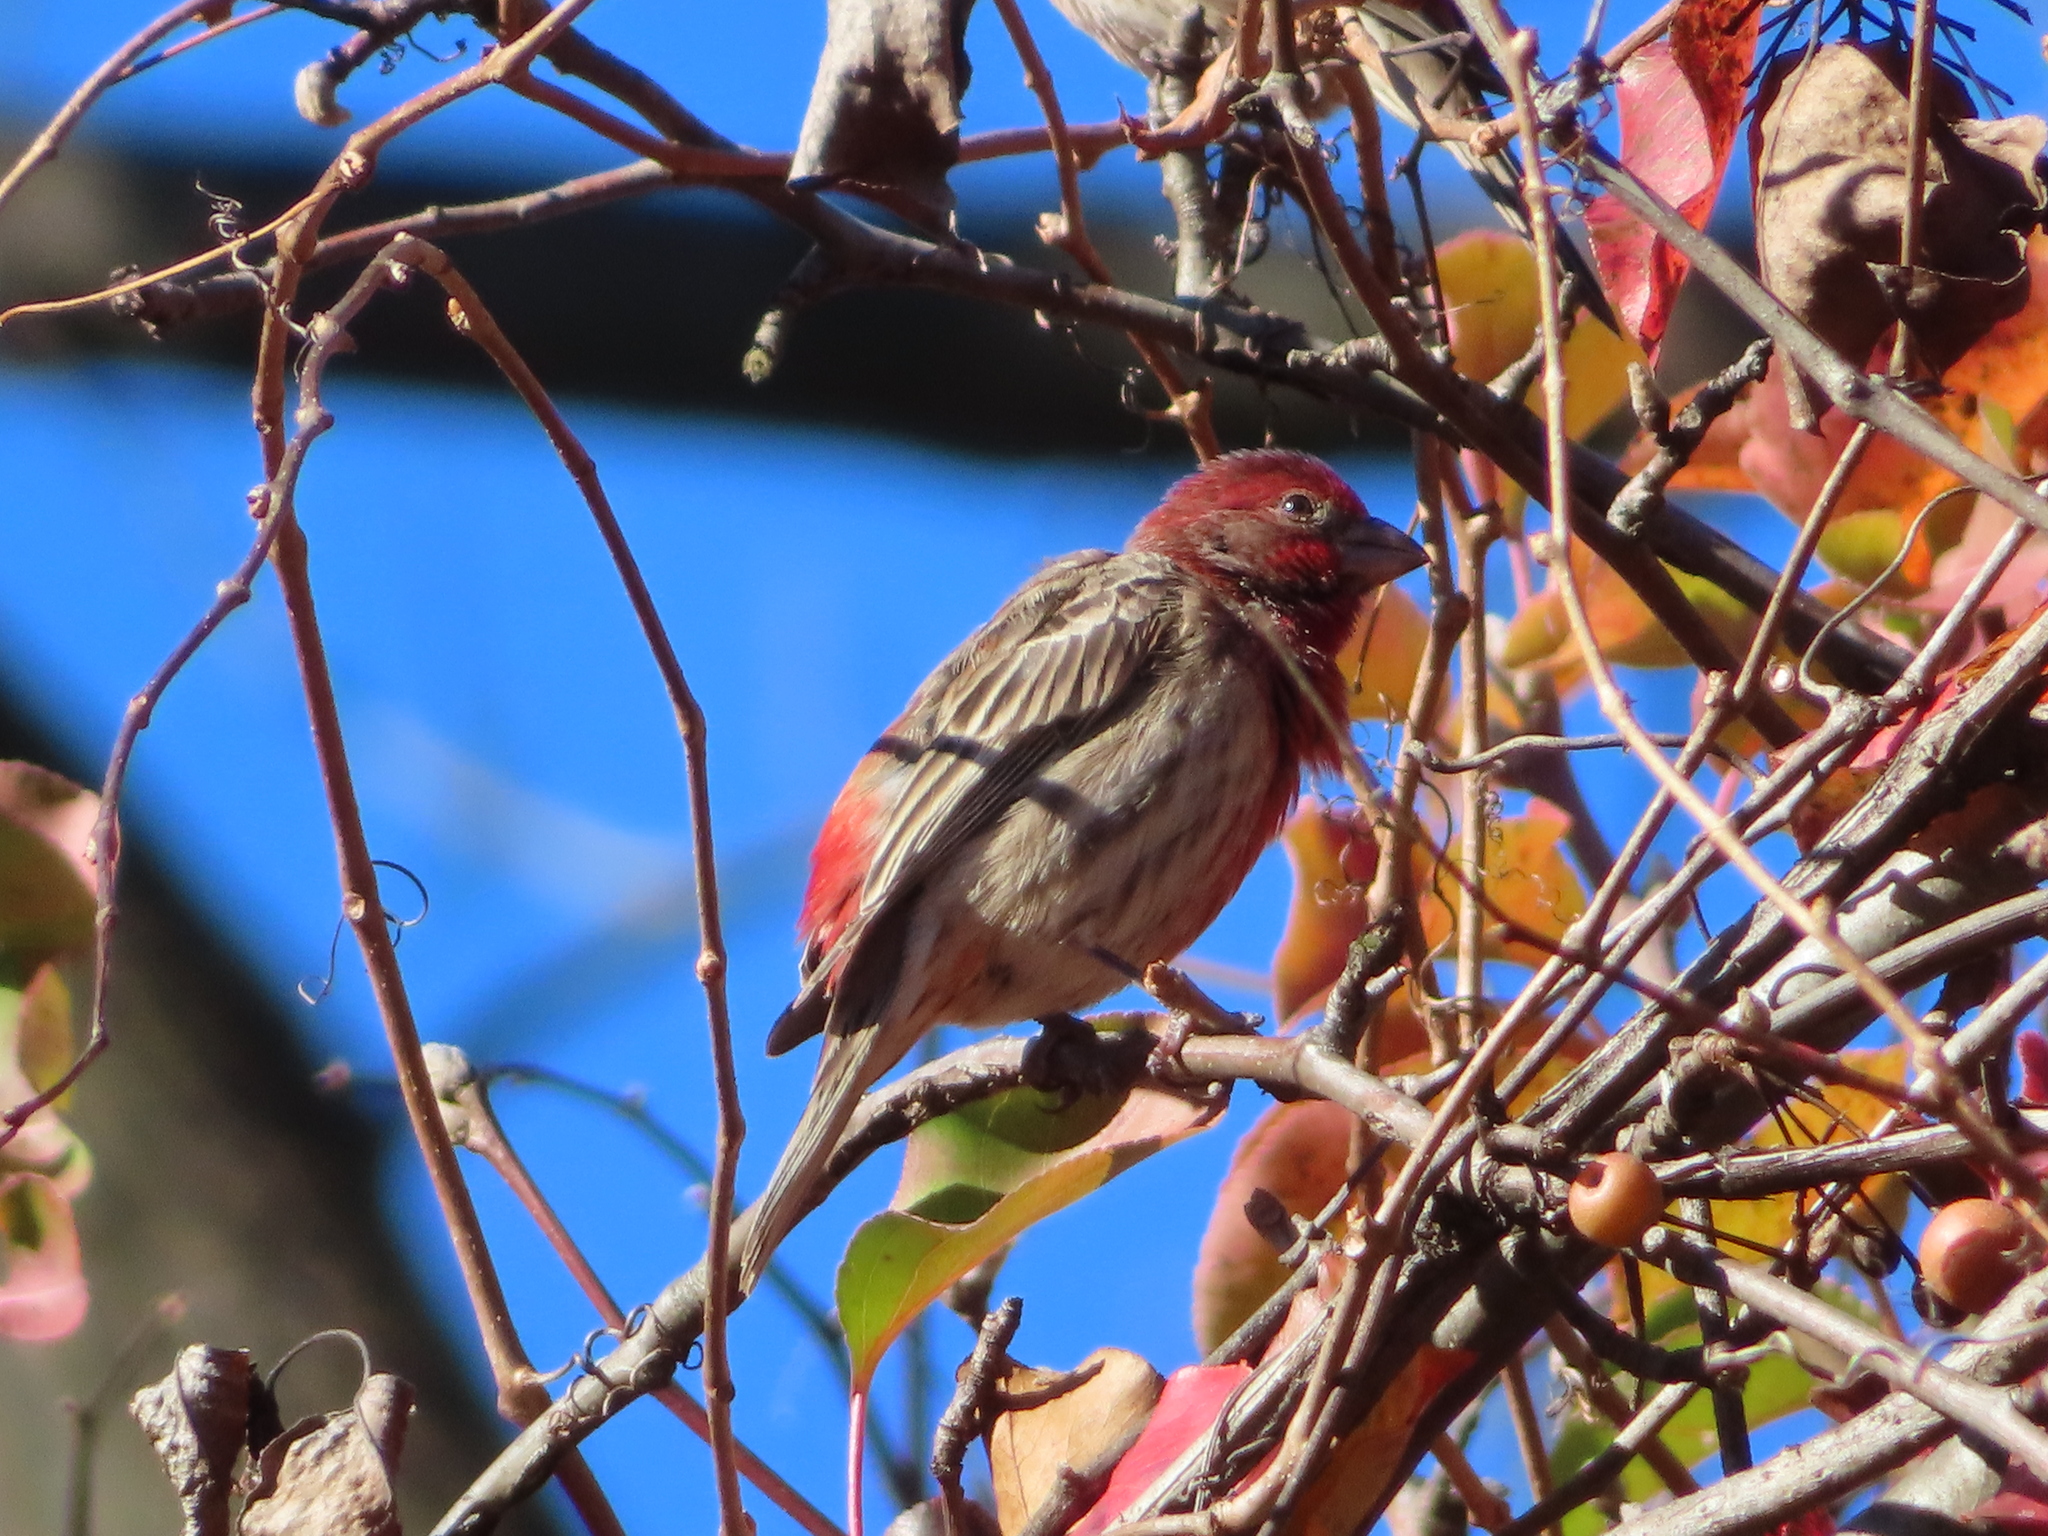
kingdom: Animalia
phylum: Chordata
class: Aves
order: Passeriformes
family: Fringillidae
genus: Haemorhous
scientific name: Haemorhous mexicanus
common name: House finch
